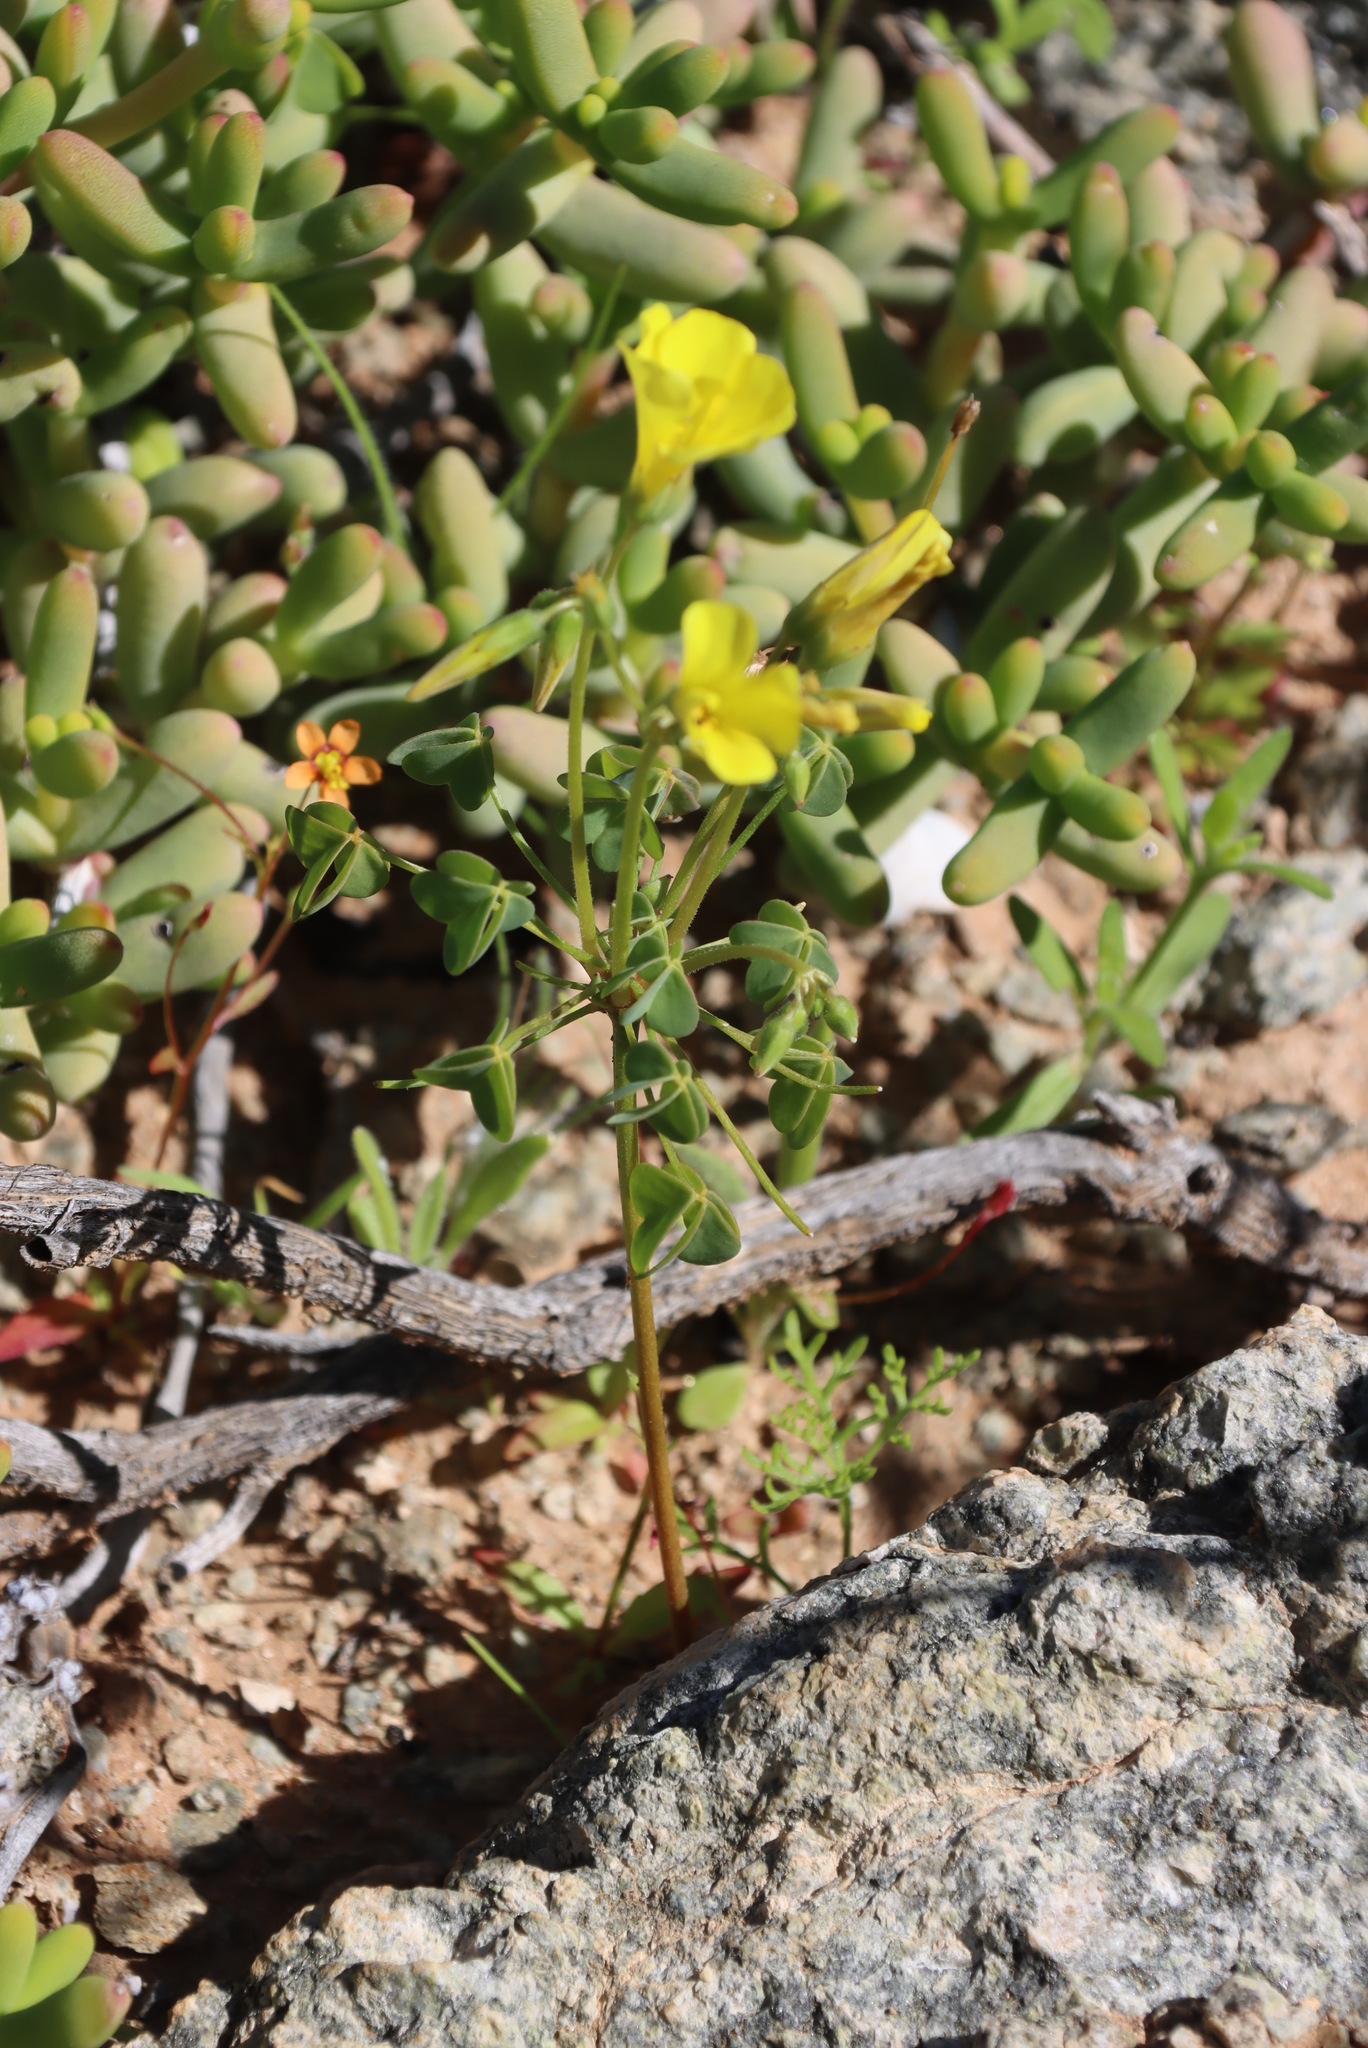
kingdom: Plantae
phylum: Tracheophyta
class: Magnoliopsida
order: Oxalidales
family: Oxalidaceae
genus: Oxalis
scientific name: Oxalis haedulipes
